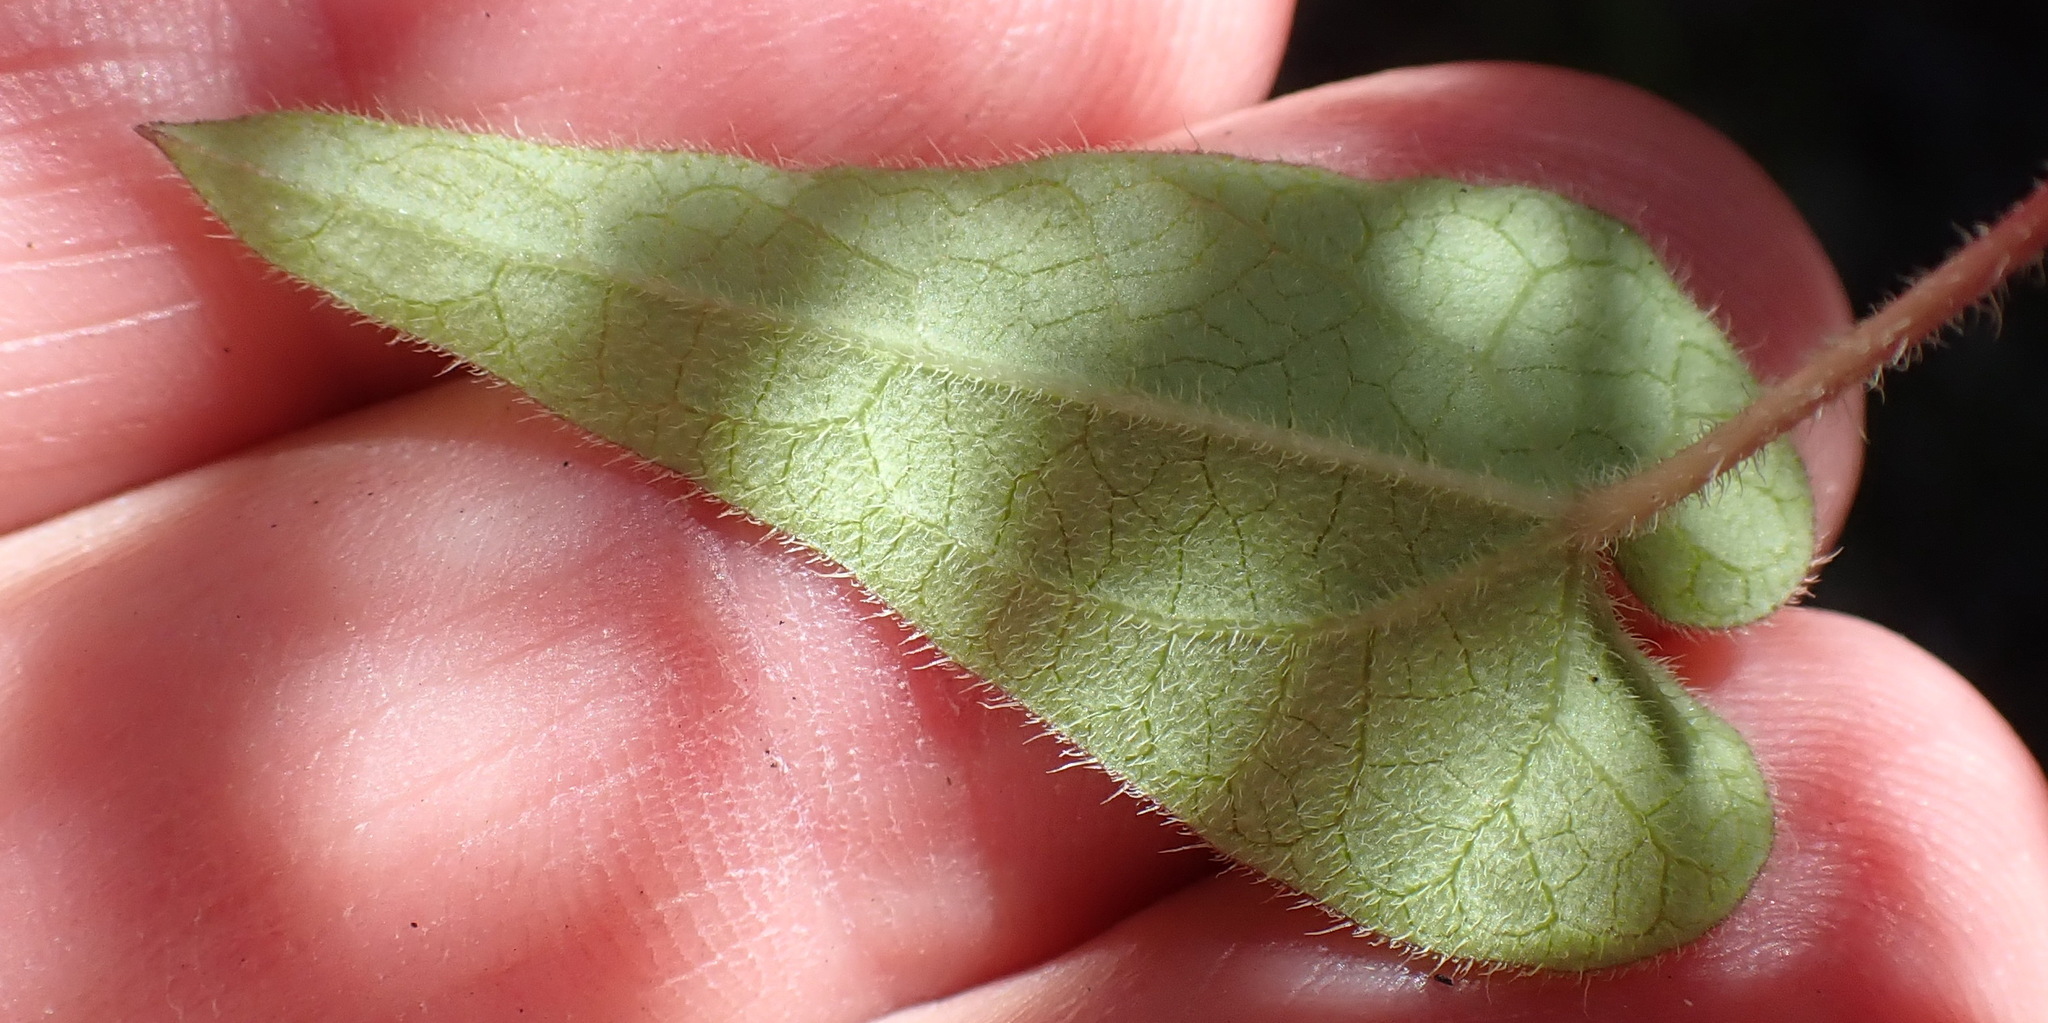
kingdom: Plantae
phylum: Tracheophyta
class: Magnoliopsida
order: Gentianales
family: Apocynaceae
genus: Riocreuxia
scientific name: Riocreuxia torulosa
